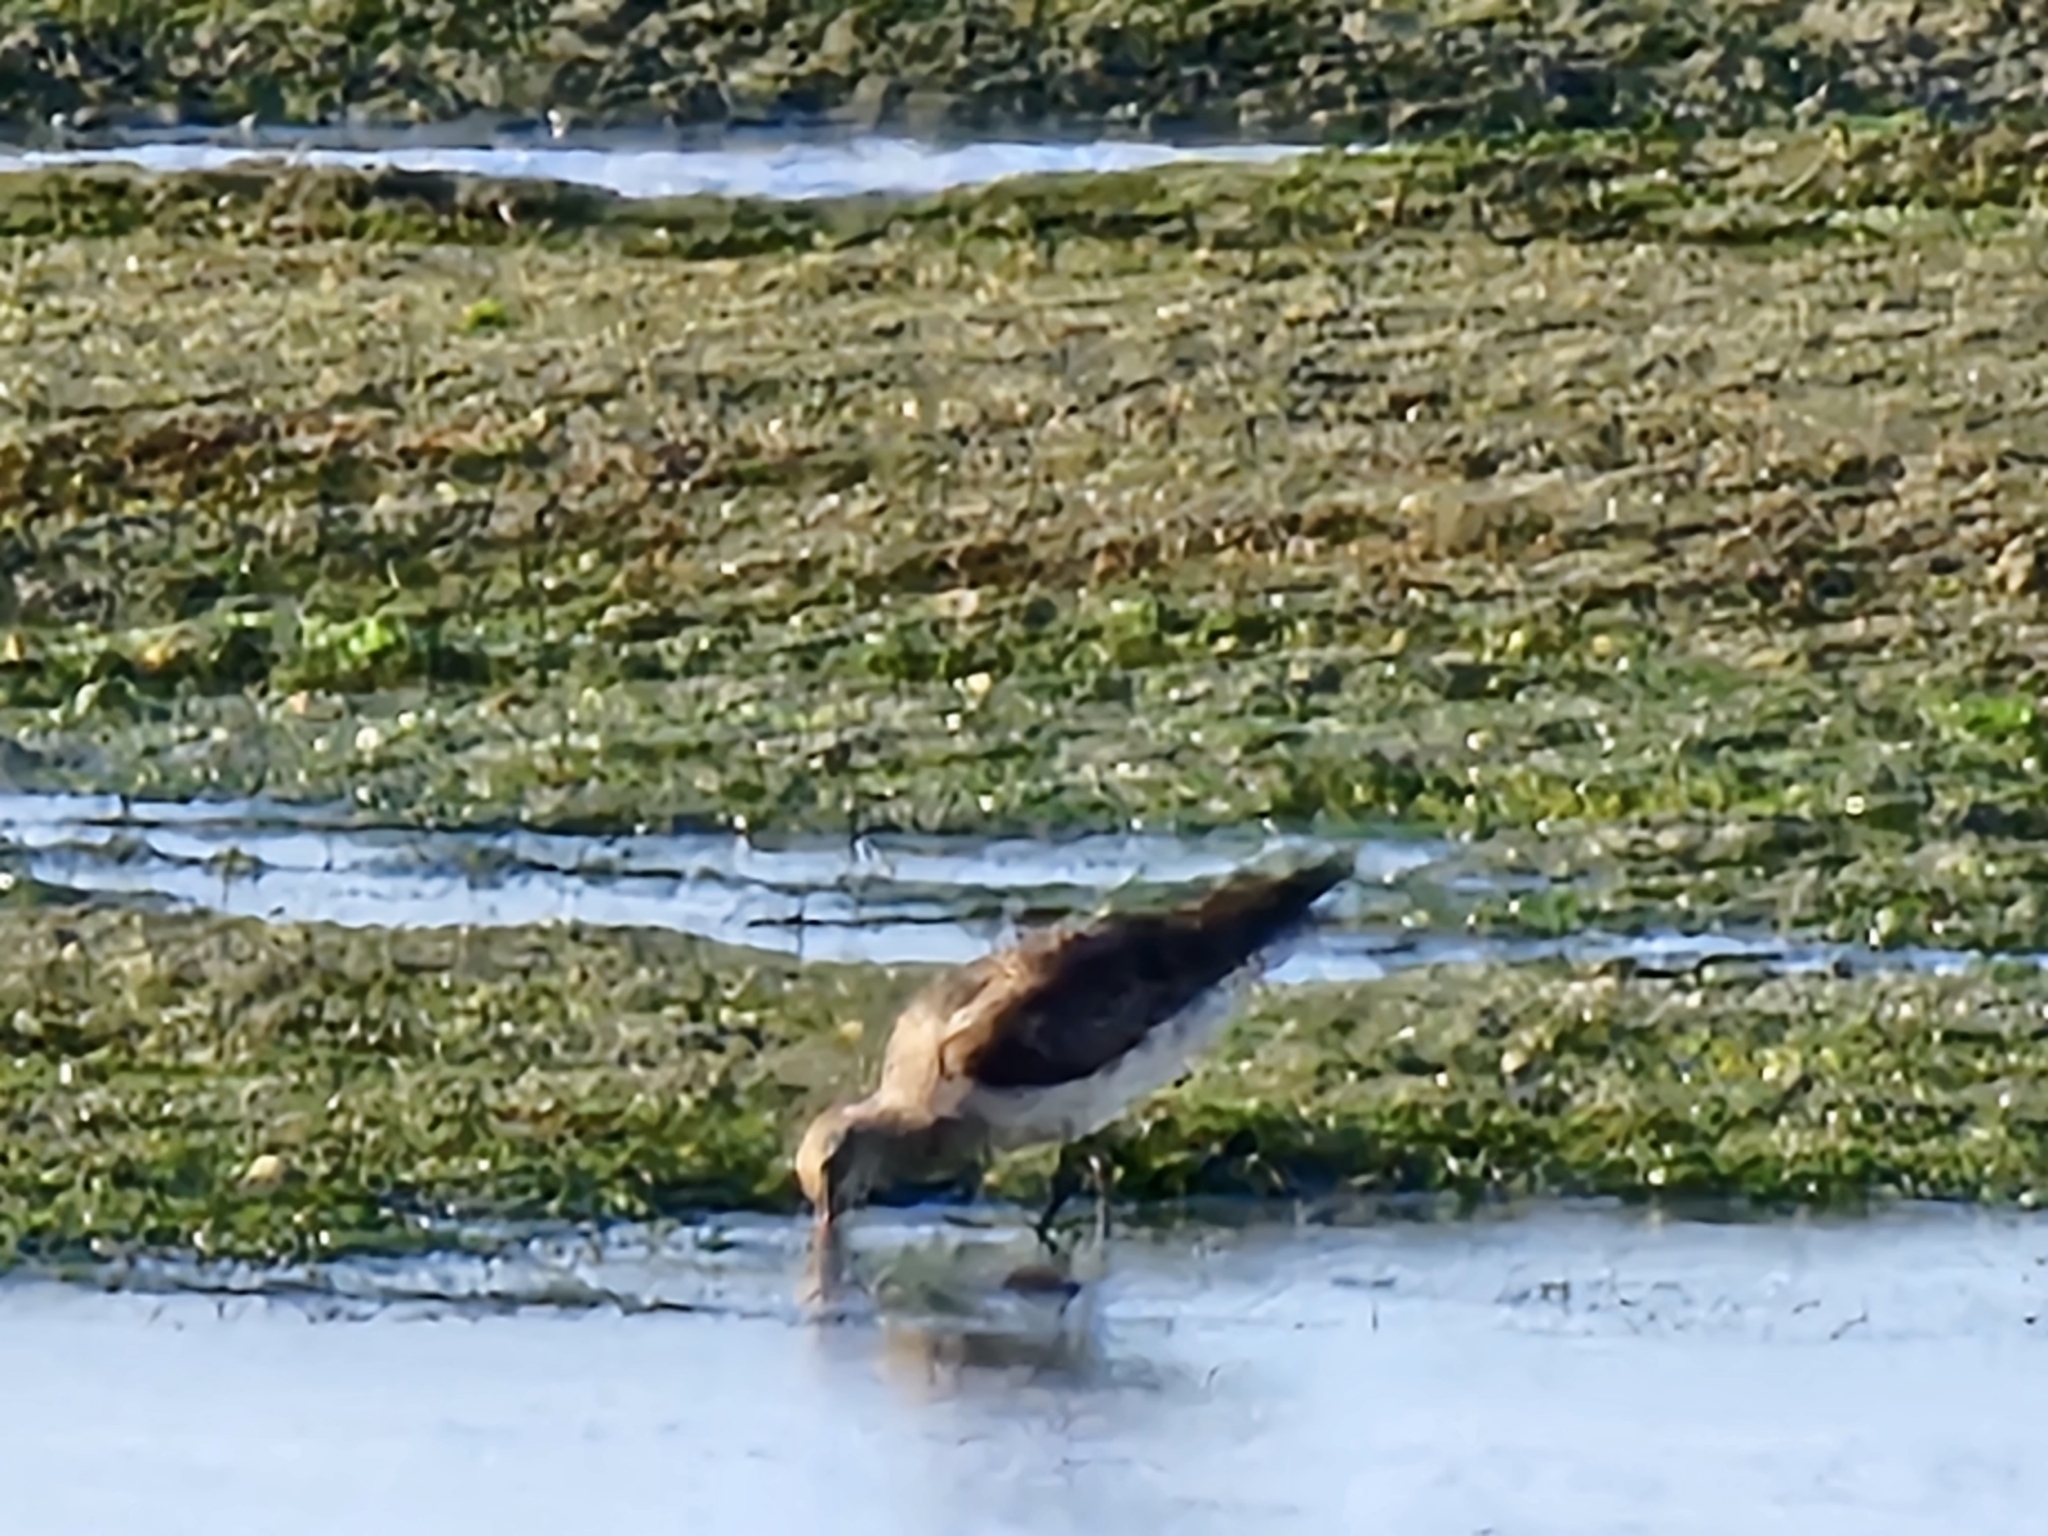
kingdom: Animalia
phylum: Chordata
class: Aves
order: Charadriiformes
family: Scolopacidae
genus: Limosa
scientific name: Limosa lapponica
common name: Bar-tailed godwit
